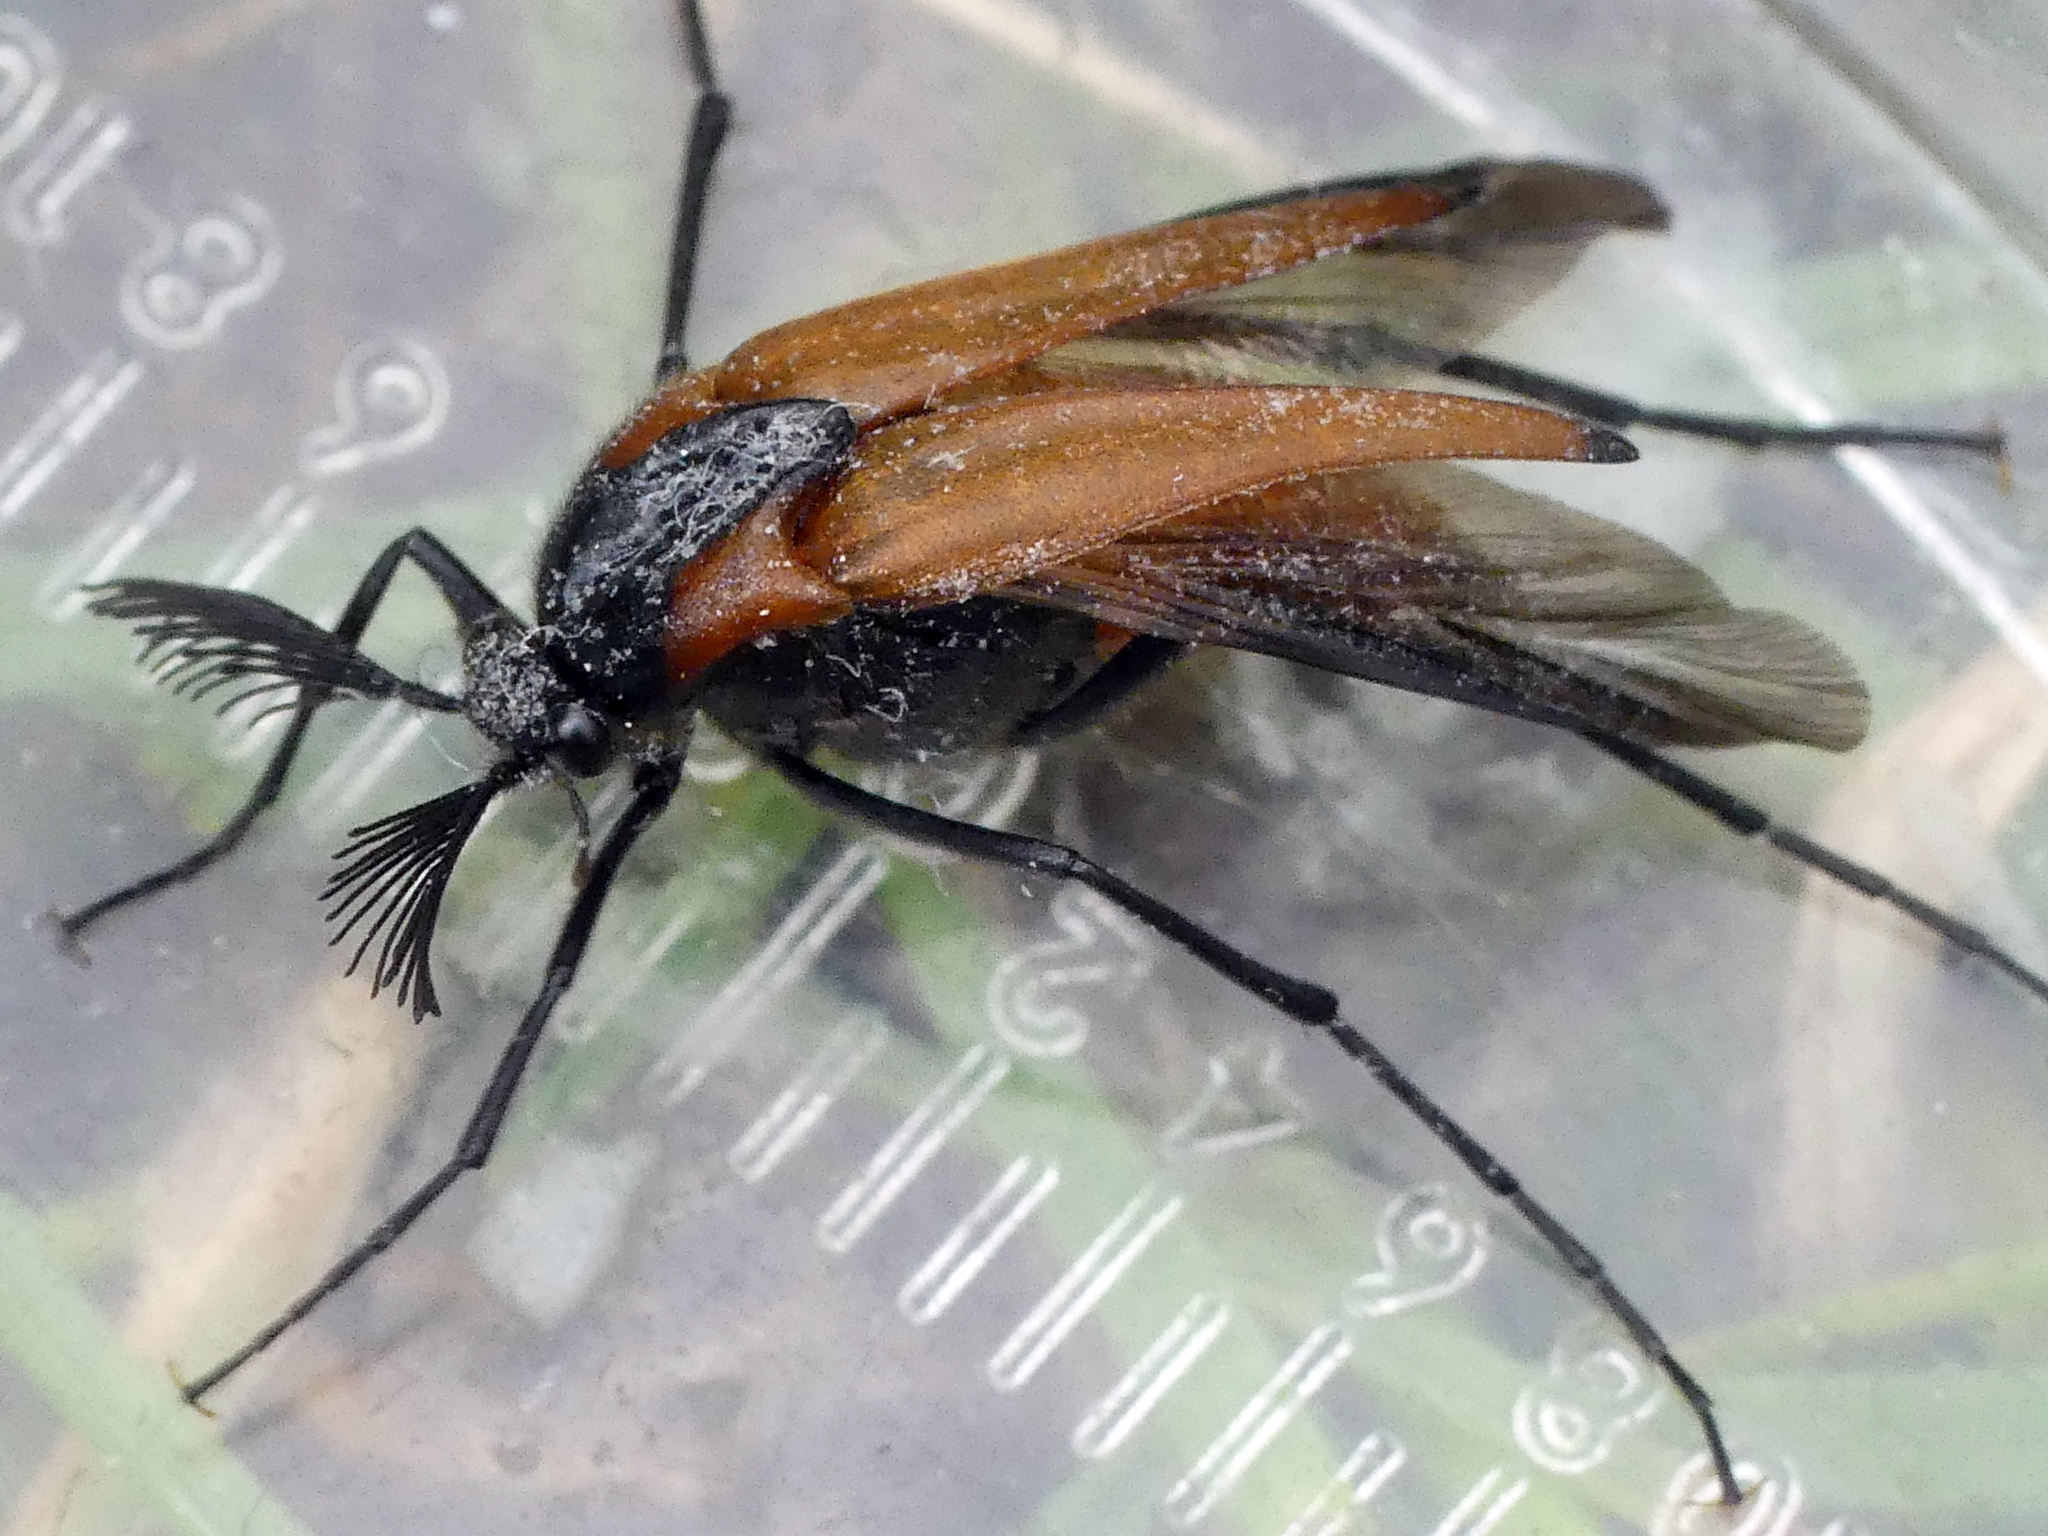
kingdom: Animalia
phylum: Arthropoda
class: Insecta
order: Coleoptera
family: Ripiphoridae
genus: Metoecus
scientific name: Metoecus paradoxus
